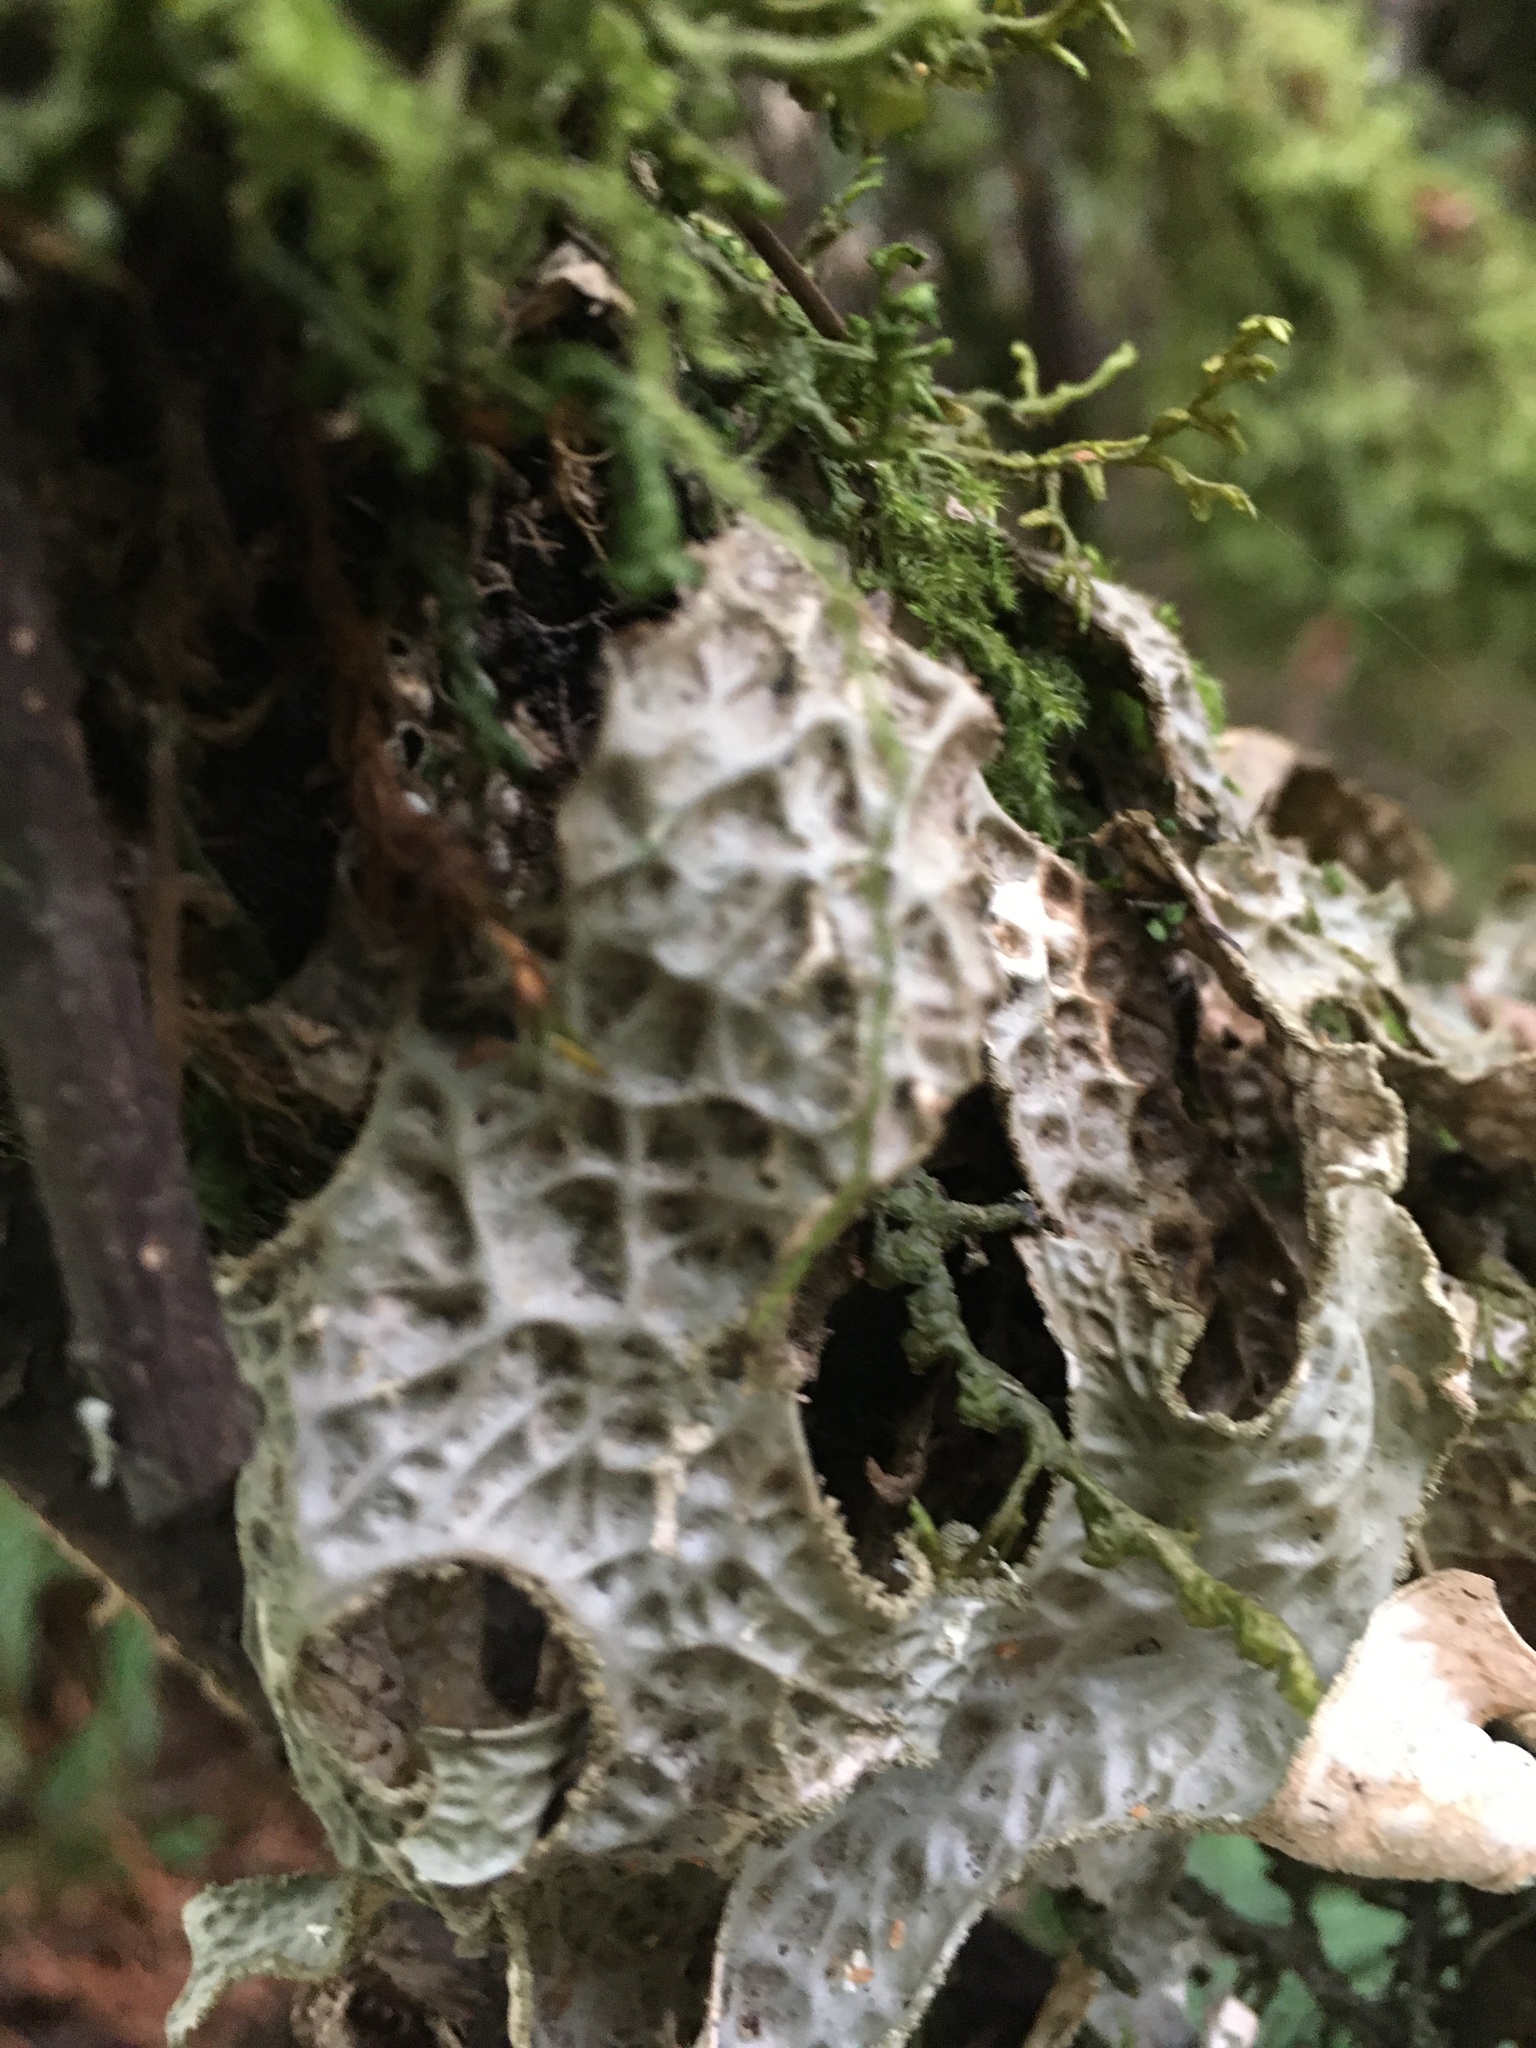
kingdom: Fungi
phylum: Ascomycota
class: Lecanoromycetes
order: Peltigerales
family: Lobariaceae
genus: Lobaria
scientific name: Lobaria pulmonaria
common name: Lungwort
